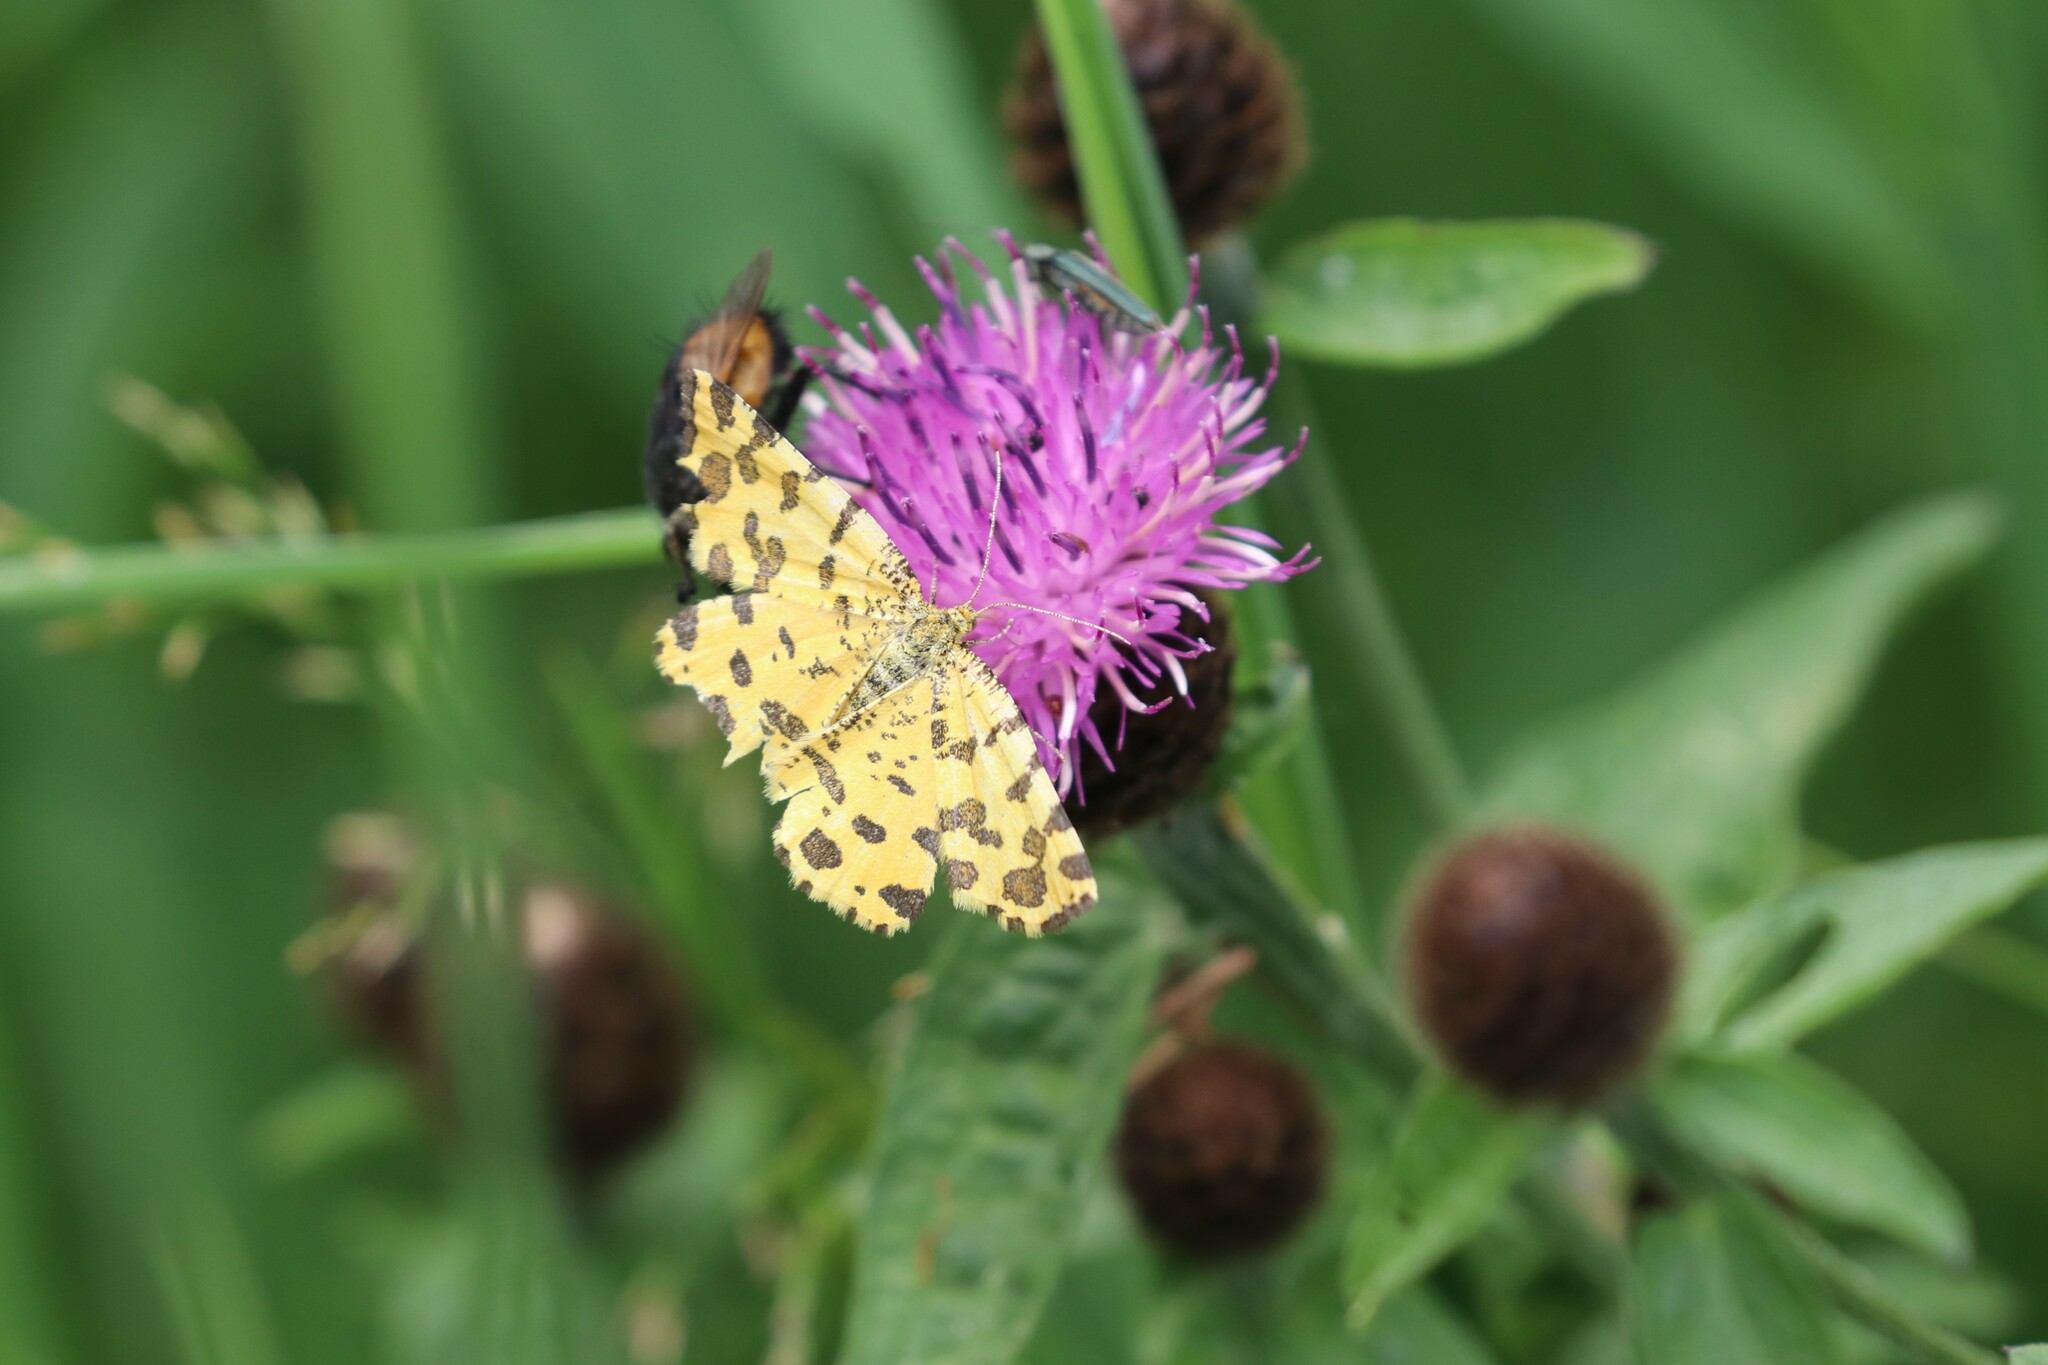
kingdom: Animalia
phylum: Arthropoda
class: Insecta
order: Lepidoptera
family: Geometridae
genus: Pseudopanthera
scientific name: Pseudopanthera macularia
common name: Speckled yellow
